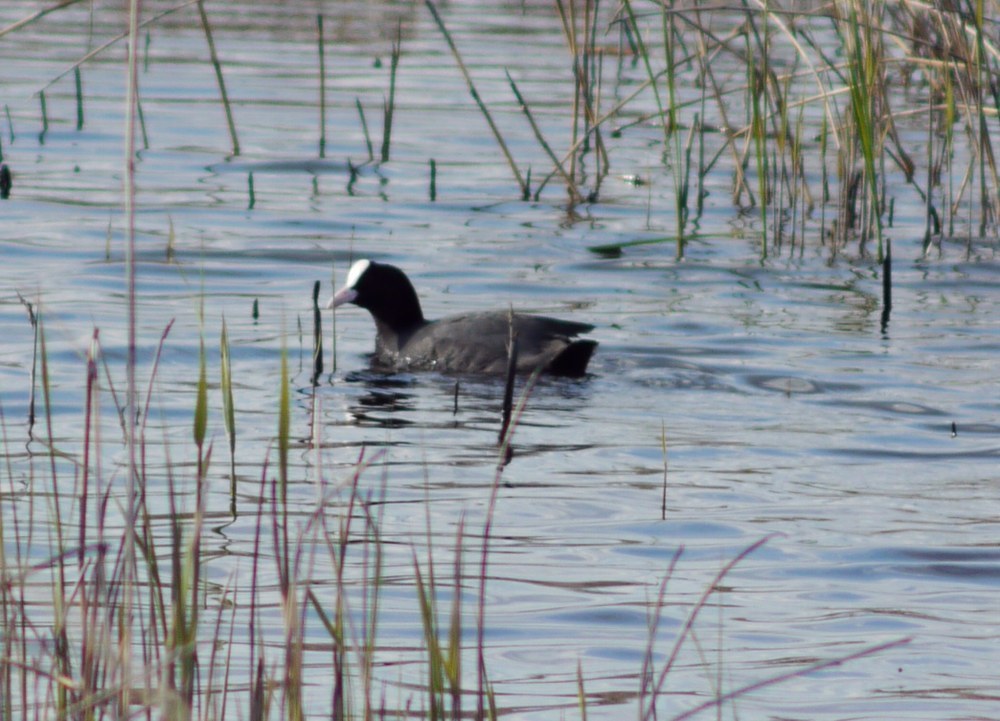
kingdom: Animalia
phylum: Chordata
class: Aves
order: Gruiformes
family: Rallidae
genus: Fulica
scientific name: Fulica atra
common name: Eurasian coot
